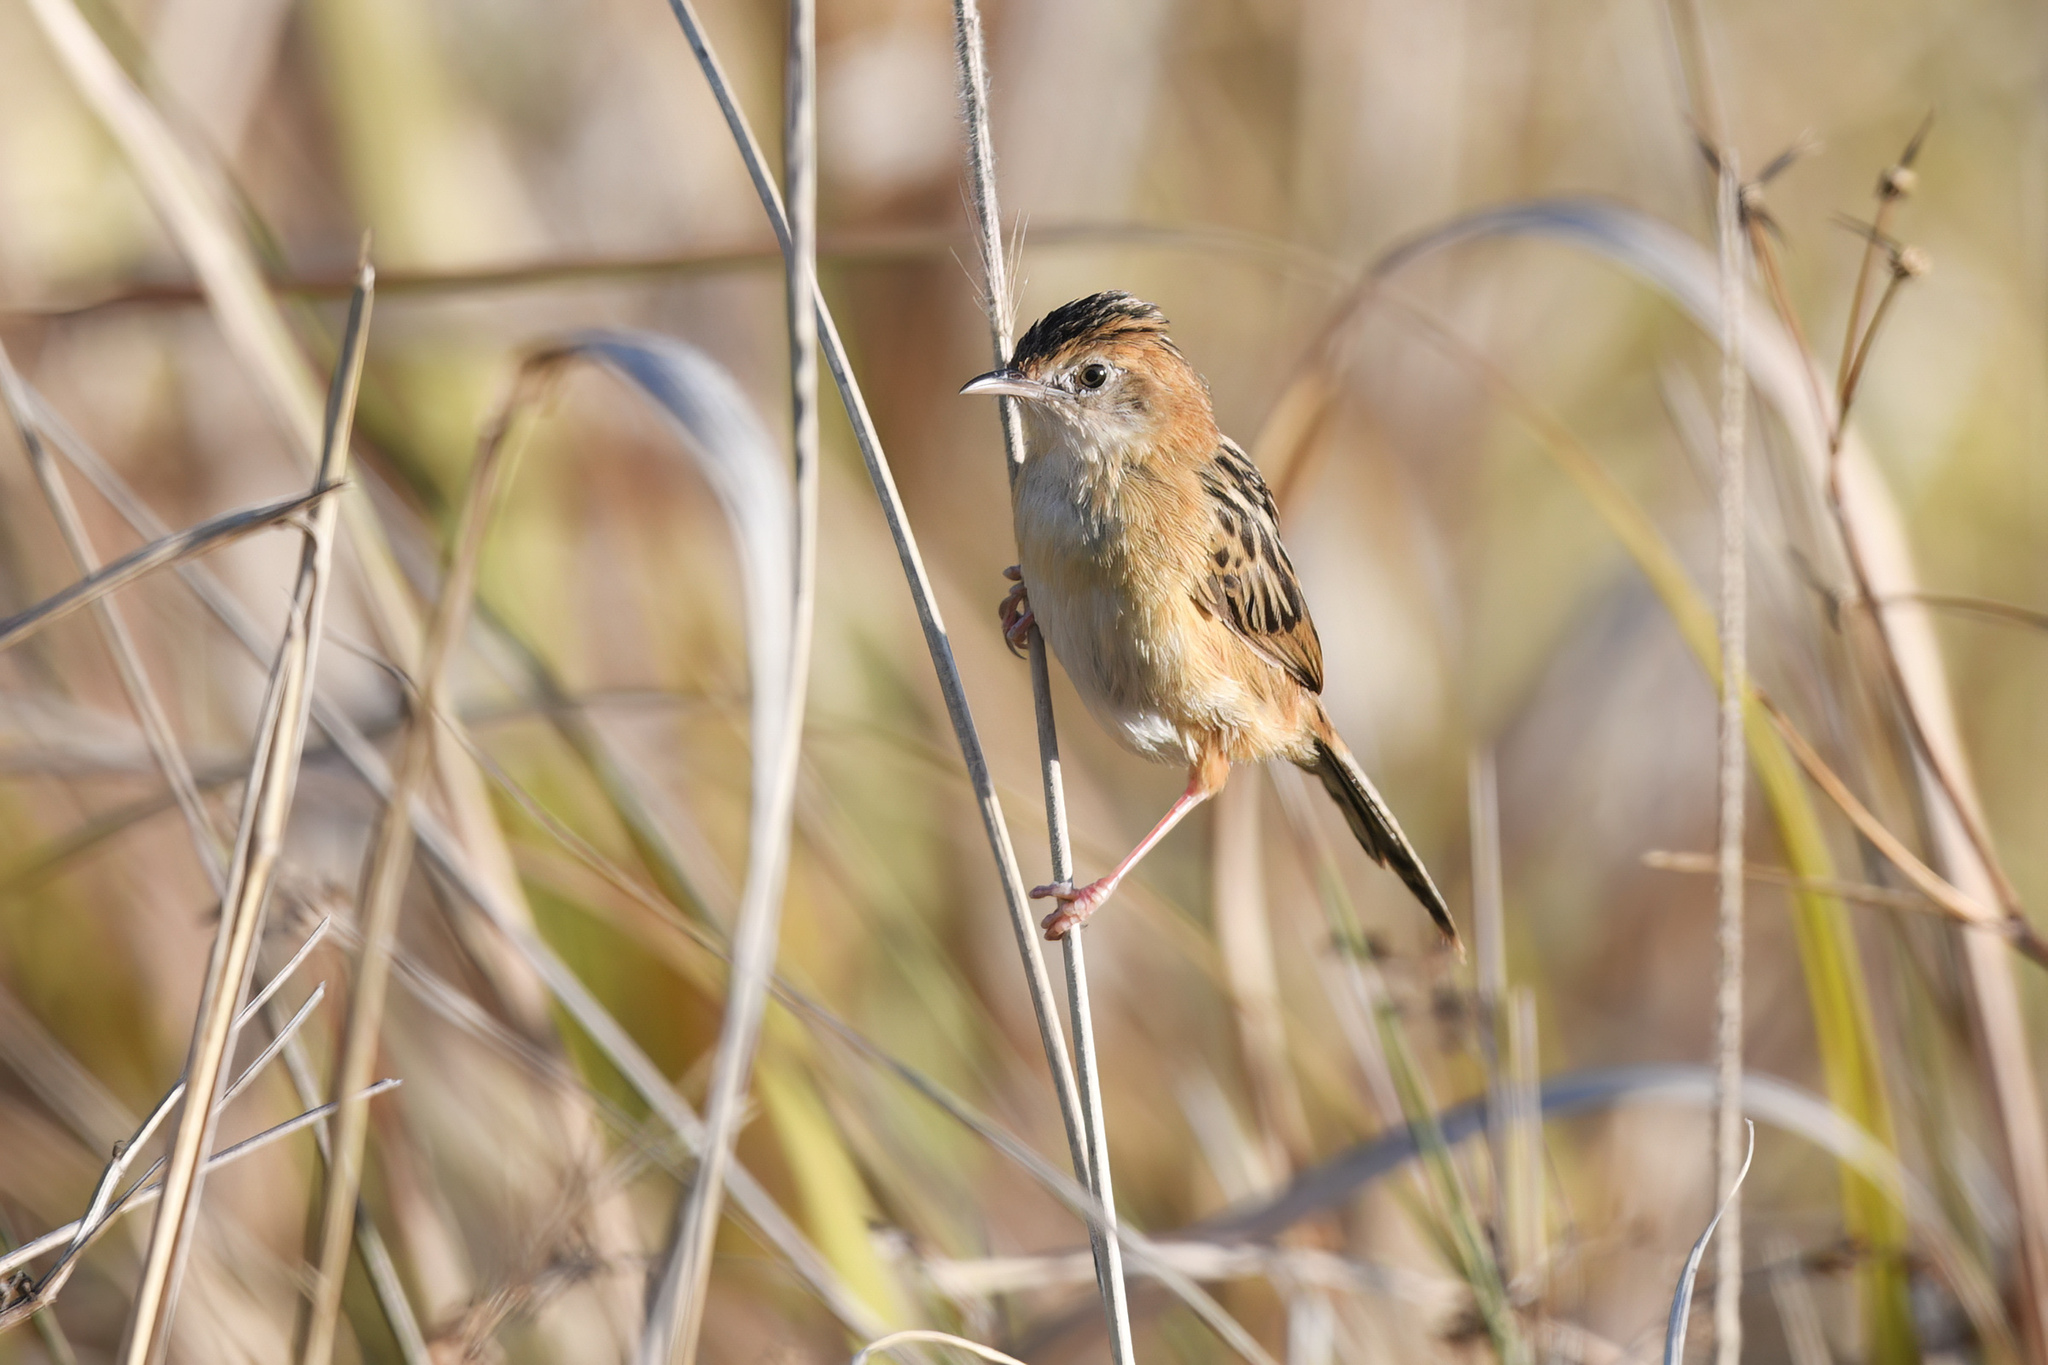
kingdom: Animalia
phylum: Chordata
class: Aves
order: Passeriformes
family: Cisticolidae
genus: Cisticola
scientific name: Cisticola exilis
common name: Golden-headed cisticola
